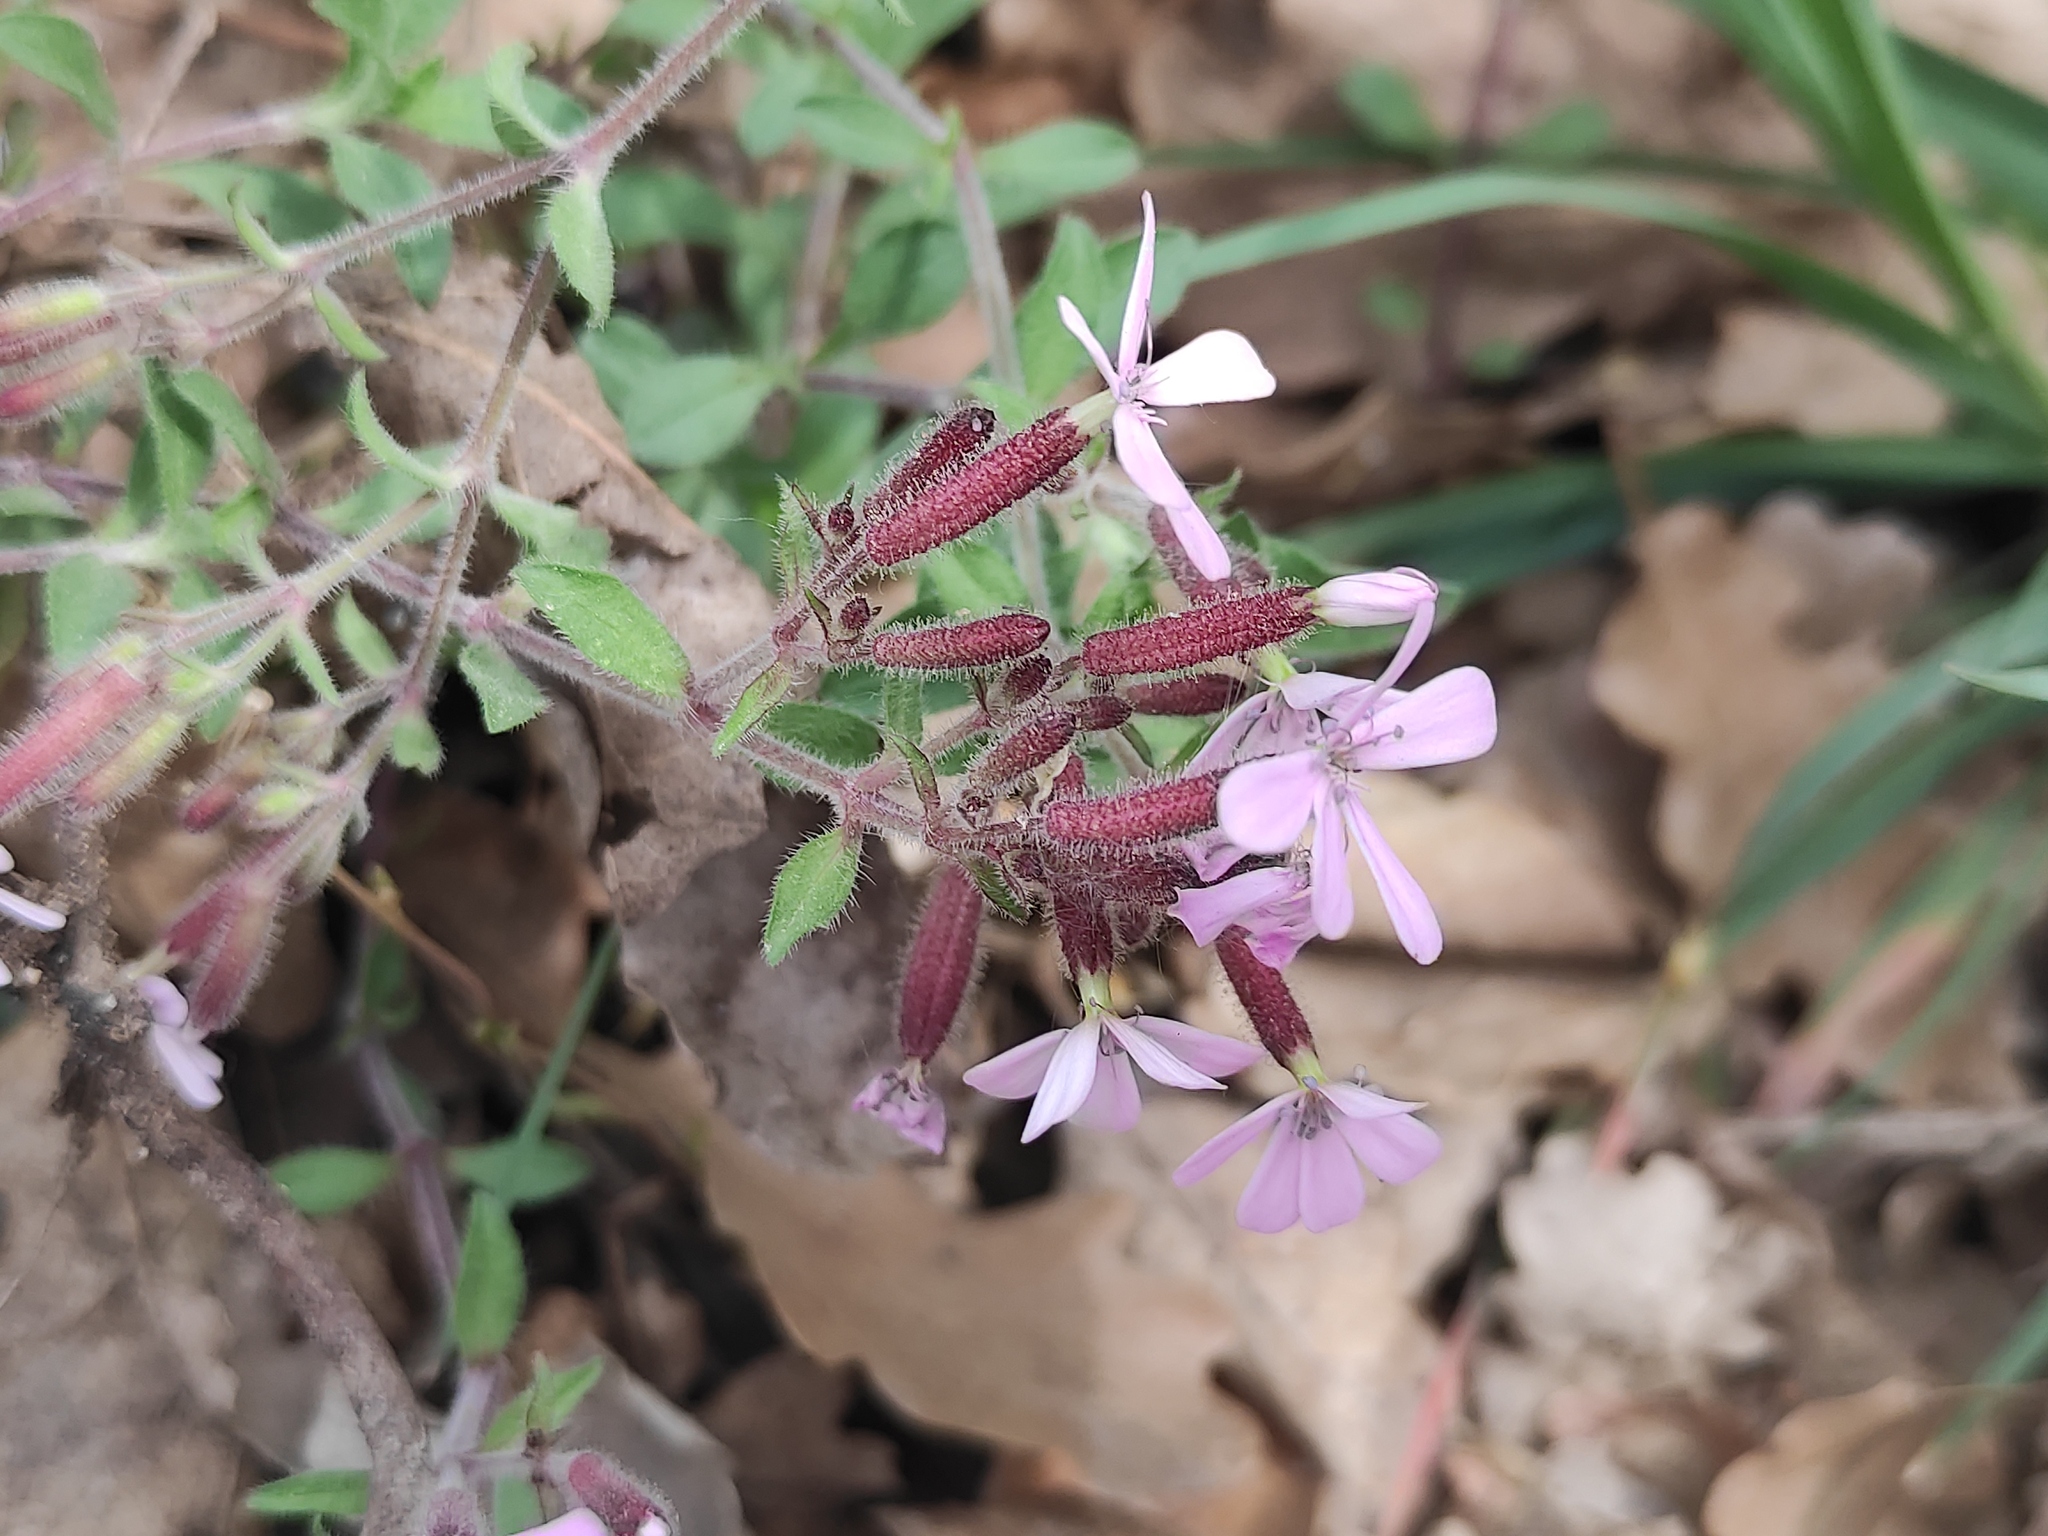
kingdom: Plantae
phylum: Tracheophyta
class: Magnoliopsida
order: Caryophyllales
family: Caryophyllaceae
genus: Saponaria
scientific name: Saponaria ocymoides
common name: Rock soapwort
